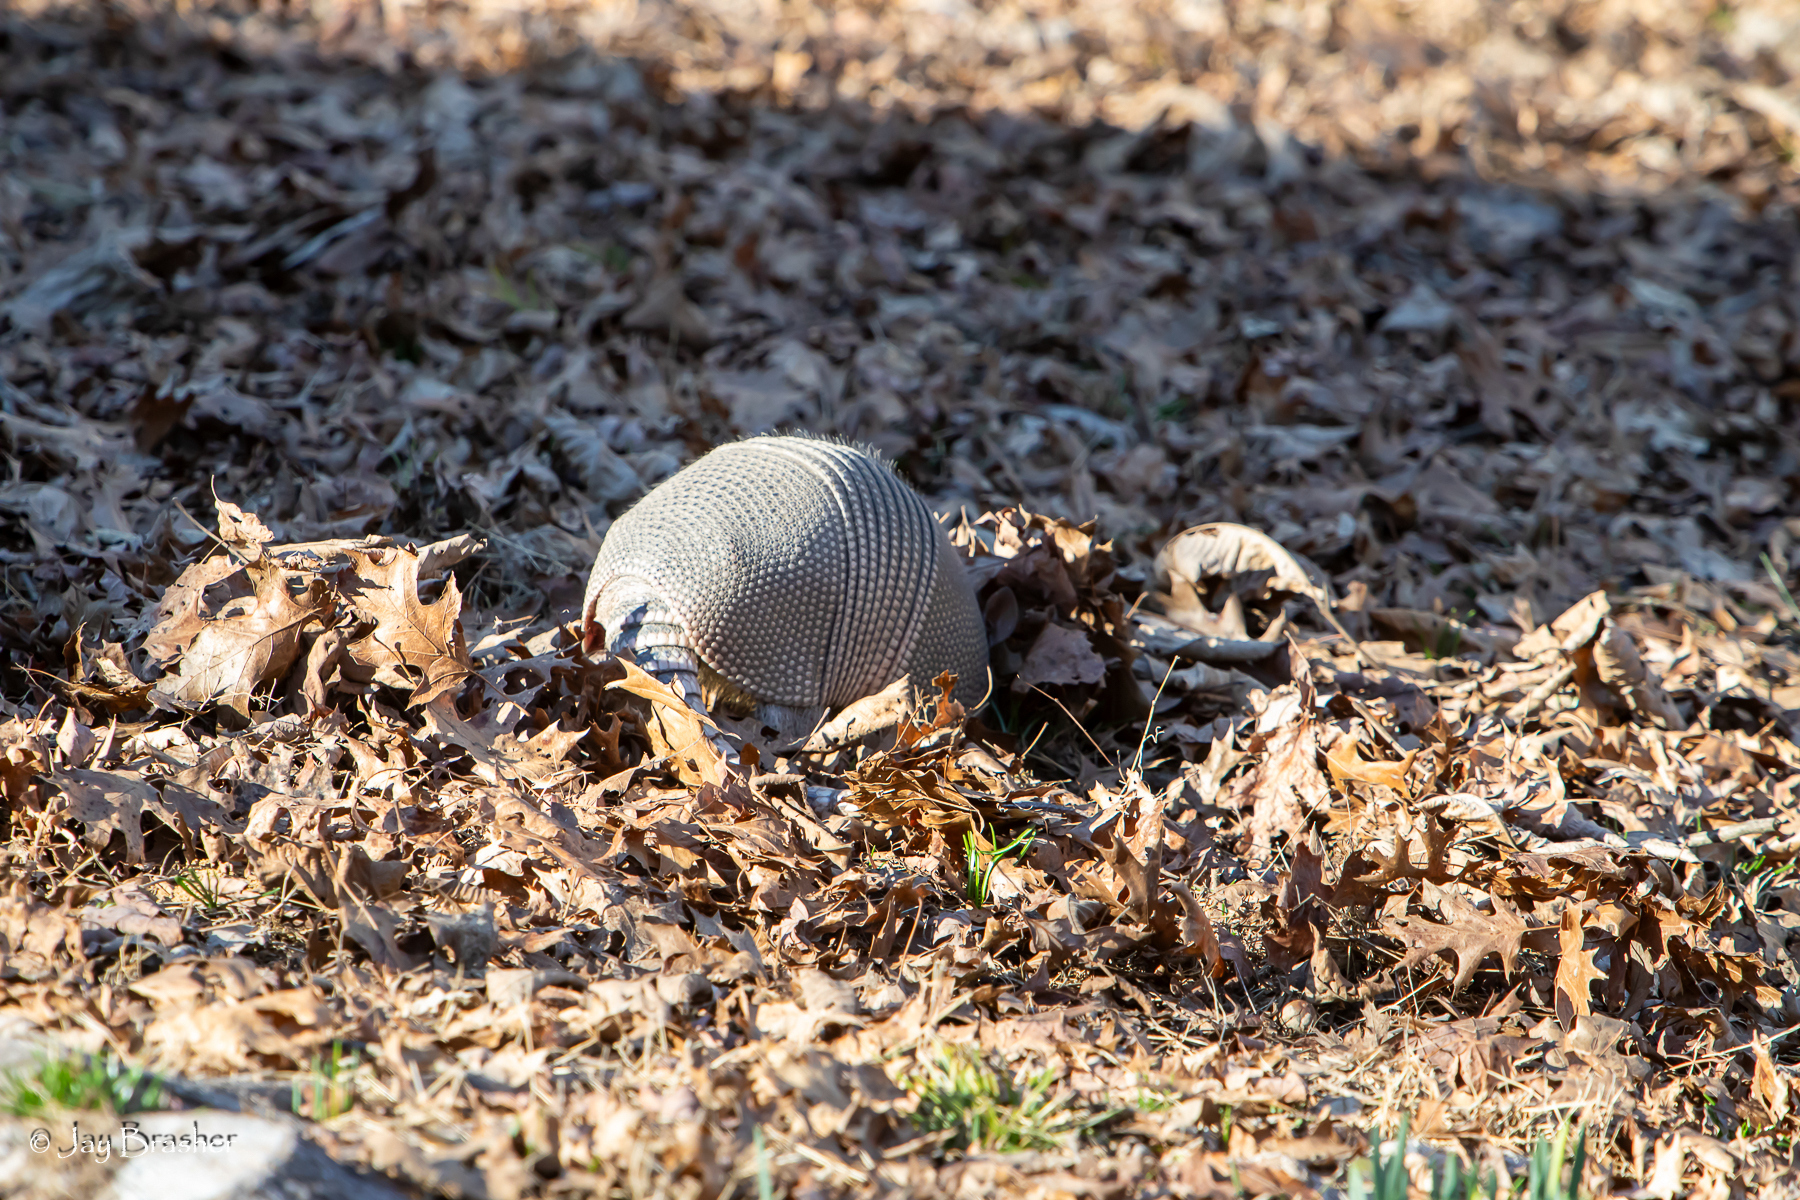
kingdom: Animalia
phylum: Chordata
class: Mammalia
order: Cingulata
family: Dasypodidae
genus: Dasypus
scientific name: Dasypus novemcinctus
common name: Nine-banded armadillo
